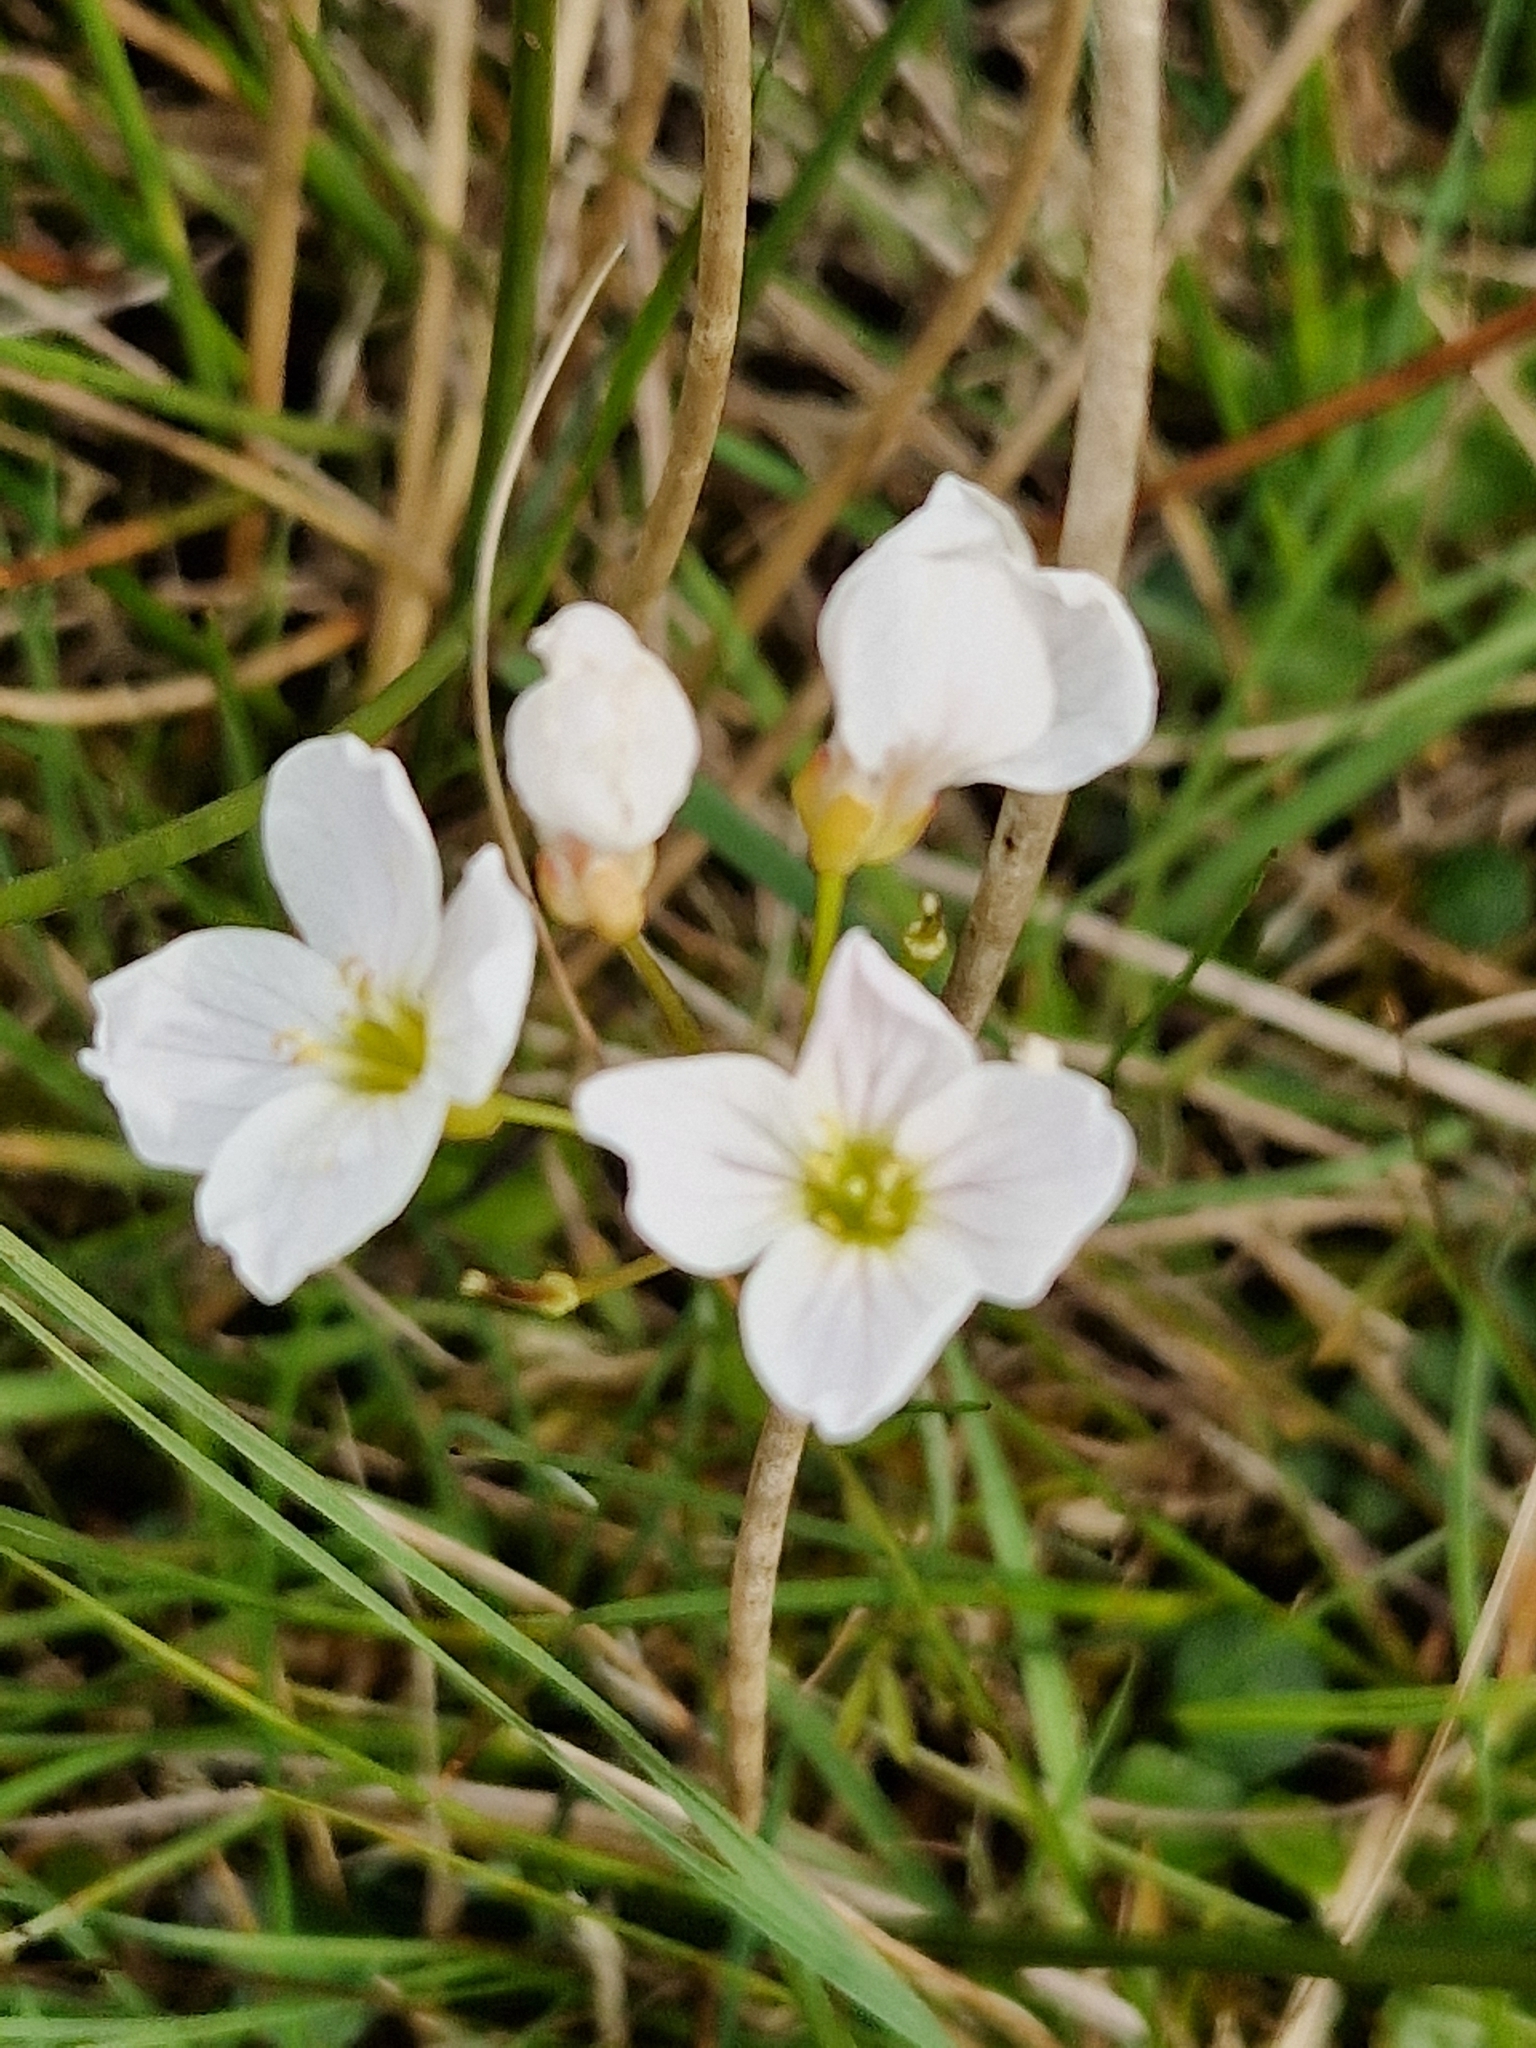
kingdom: Plantae
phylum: Tracheophyta
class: Magnoliopsida
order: Brassicales
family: Brassicaceae
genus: Cardamine
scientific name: Cardamine pratensis
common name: Cuckoo flower
